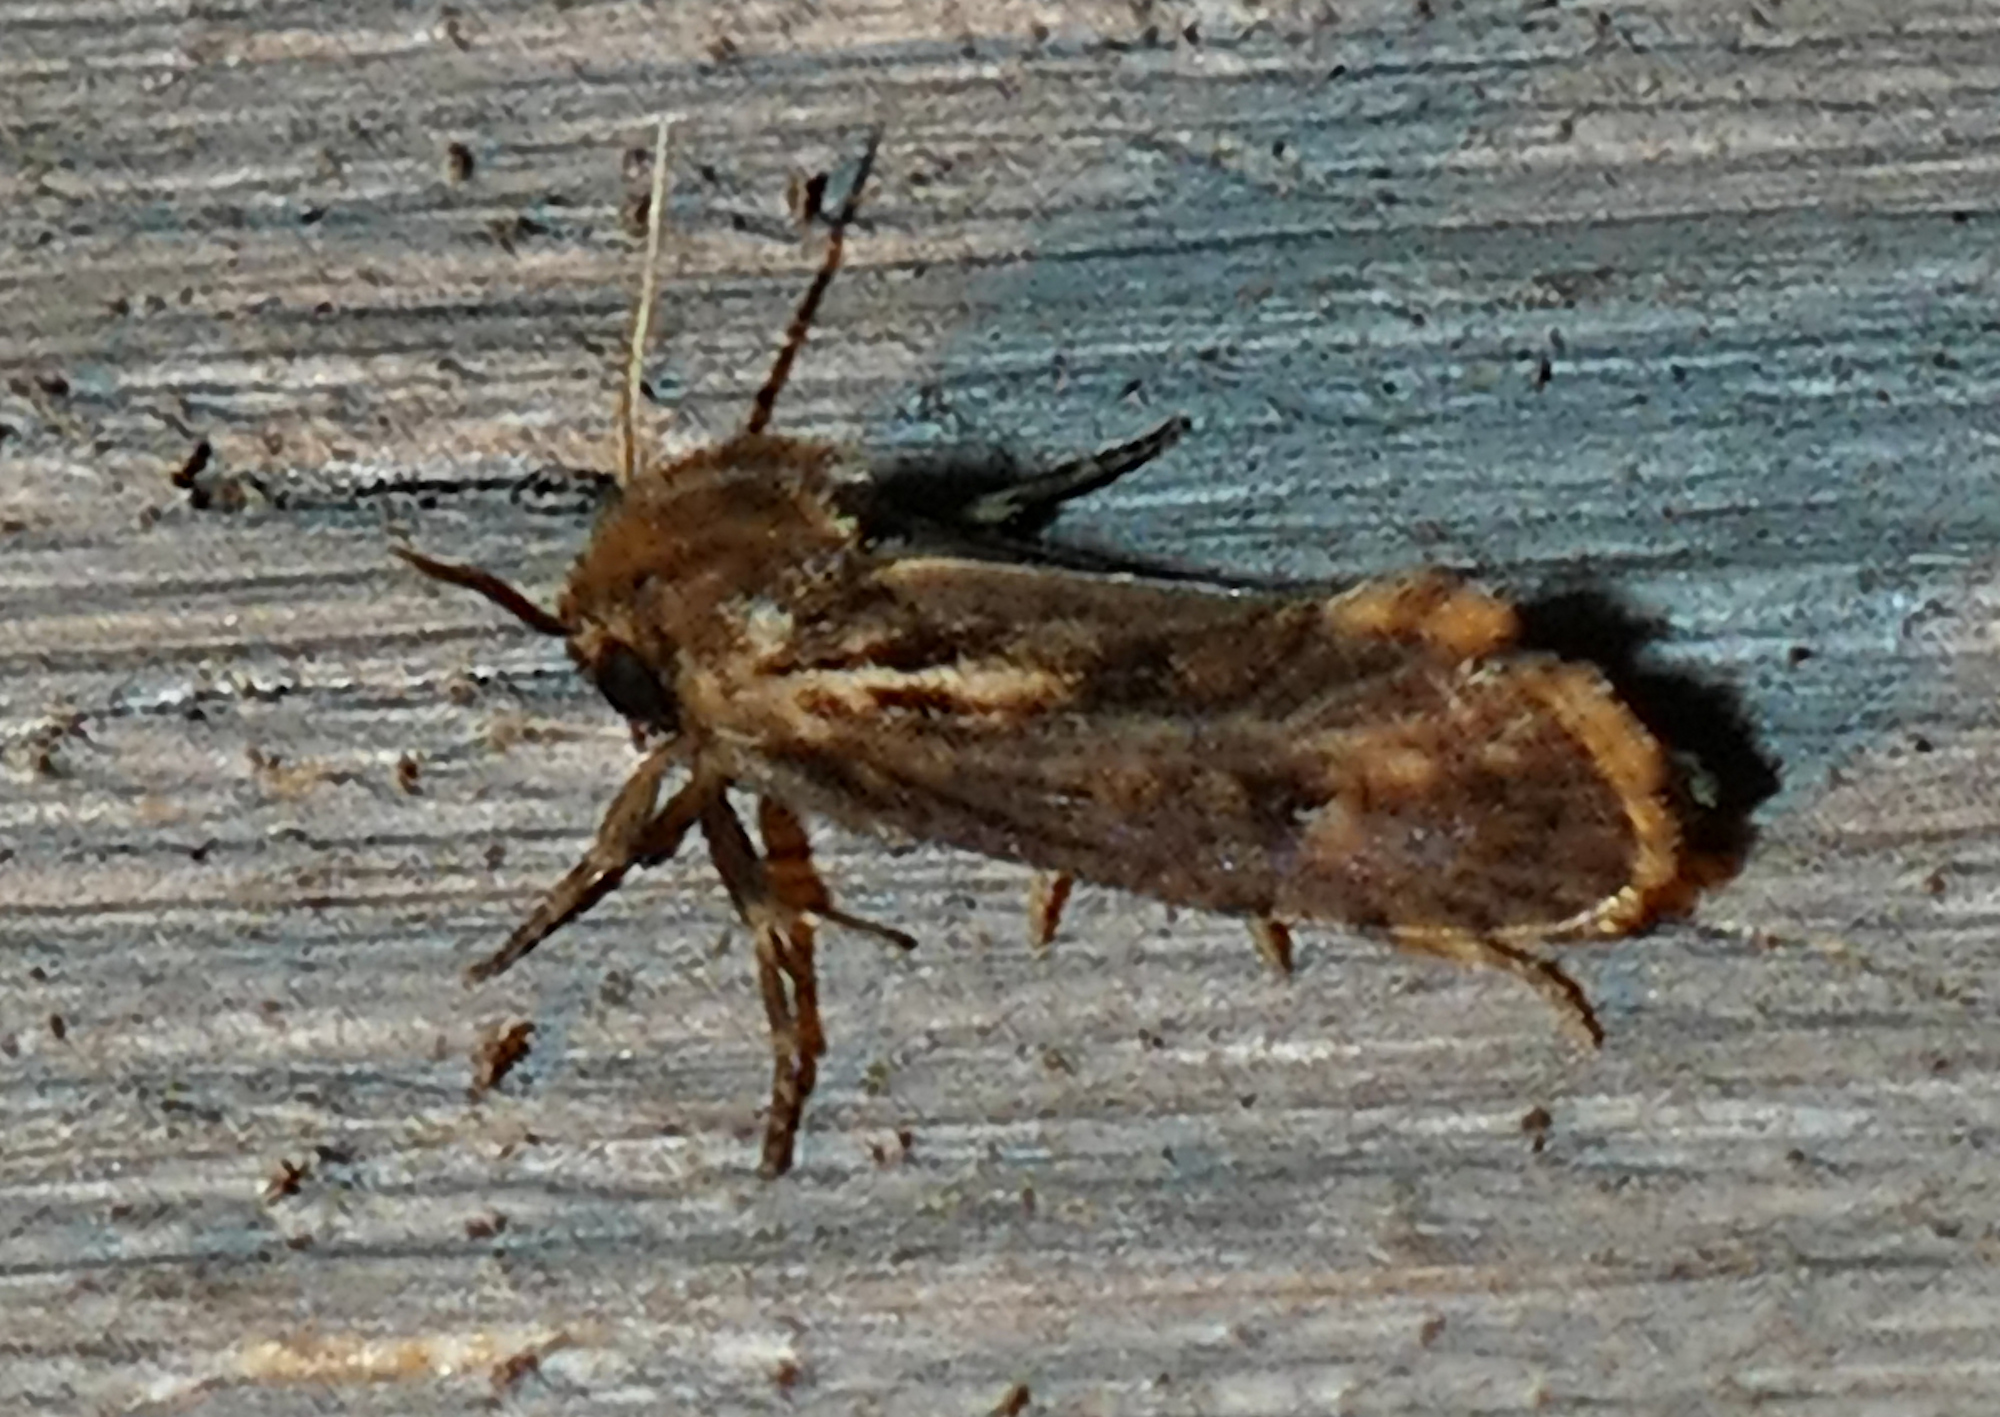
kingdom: Animalia
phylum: Arthropoda
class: Insecta
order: Lepidoptera
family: Tineidae
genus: Acrolophus
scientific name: Acrolophus popeanella
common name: Clemens' grass tubeworm moth
